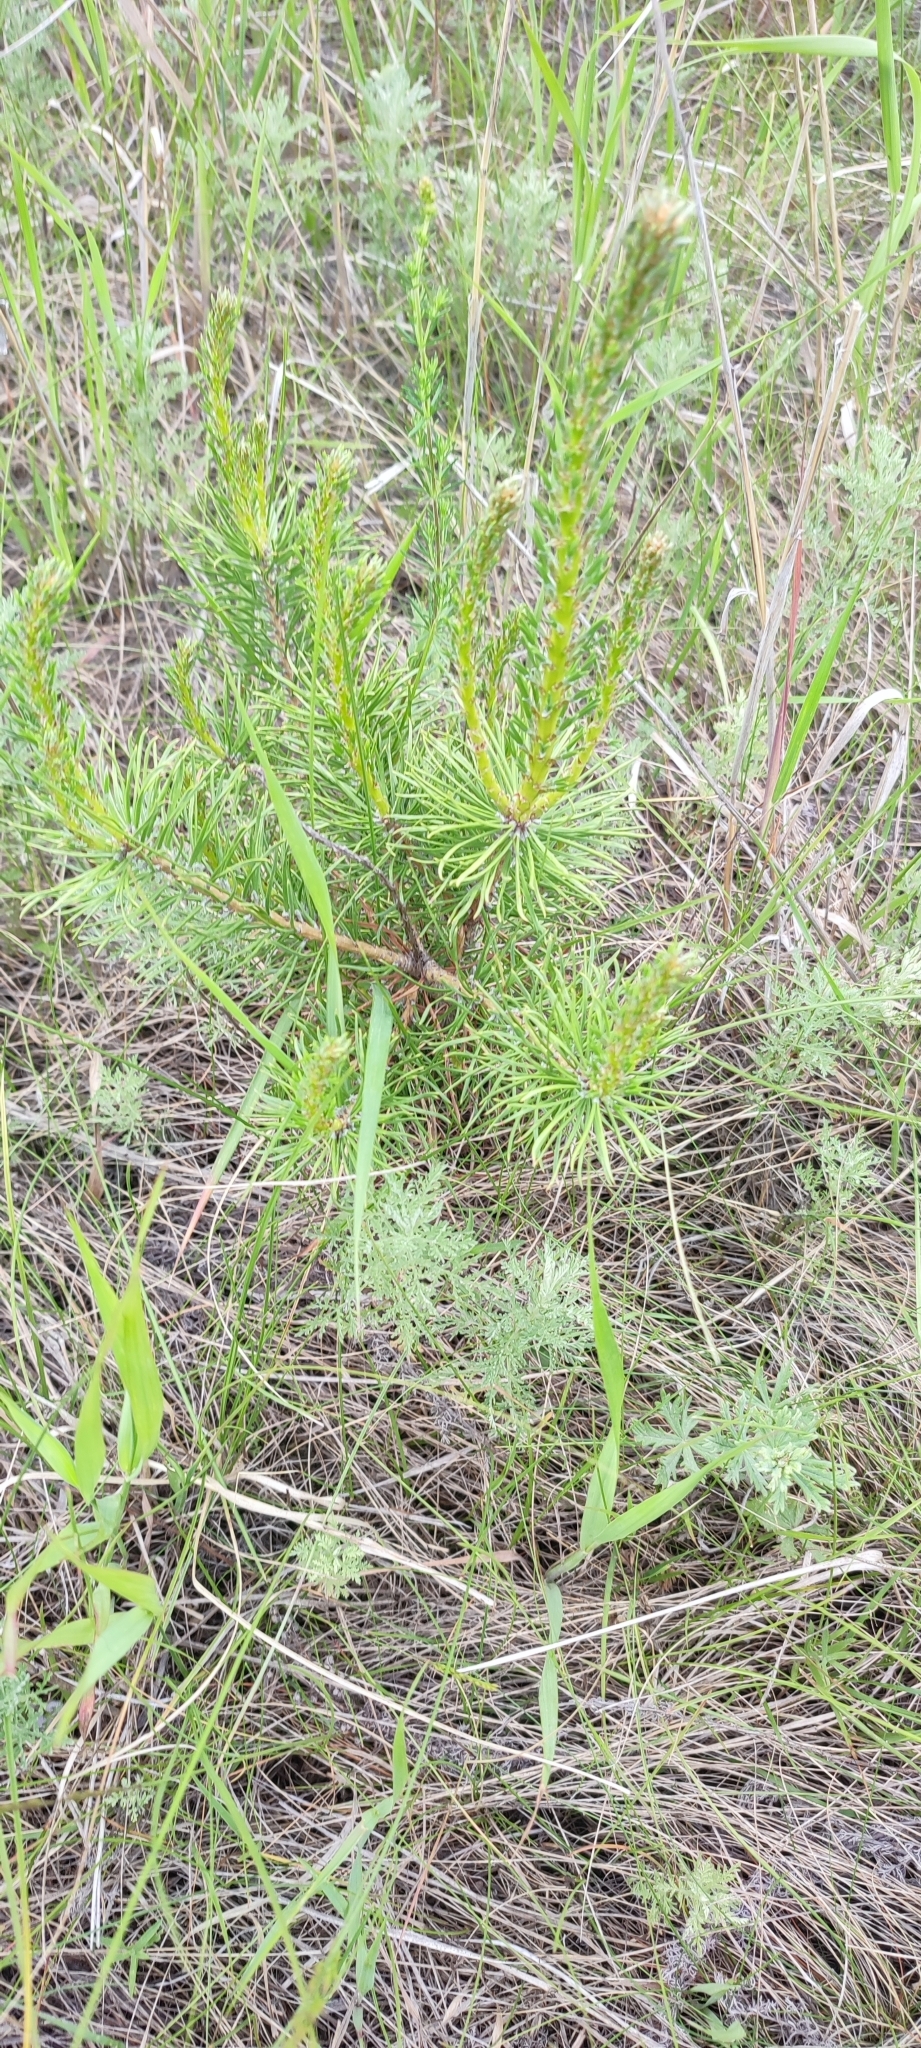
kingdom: Plantae
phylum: Tracheophyta
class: Pinopsida
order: Pinales
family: Pinaceae
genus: Pinus
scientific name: Pinus sylvestris
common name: Scots pine
